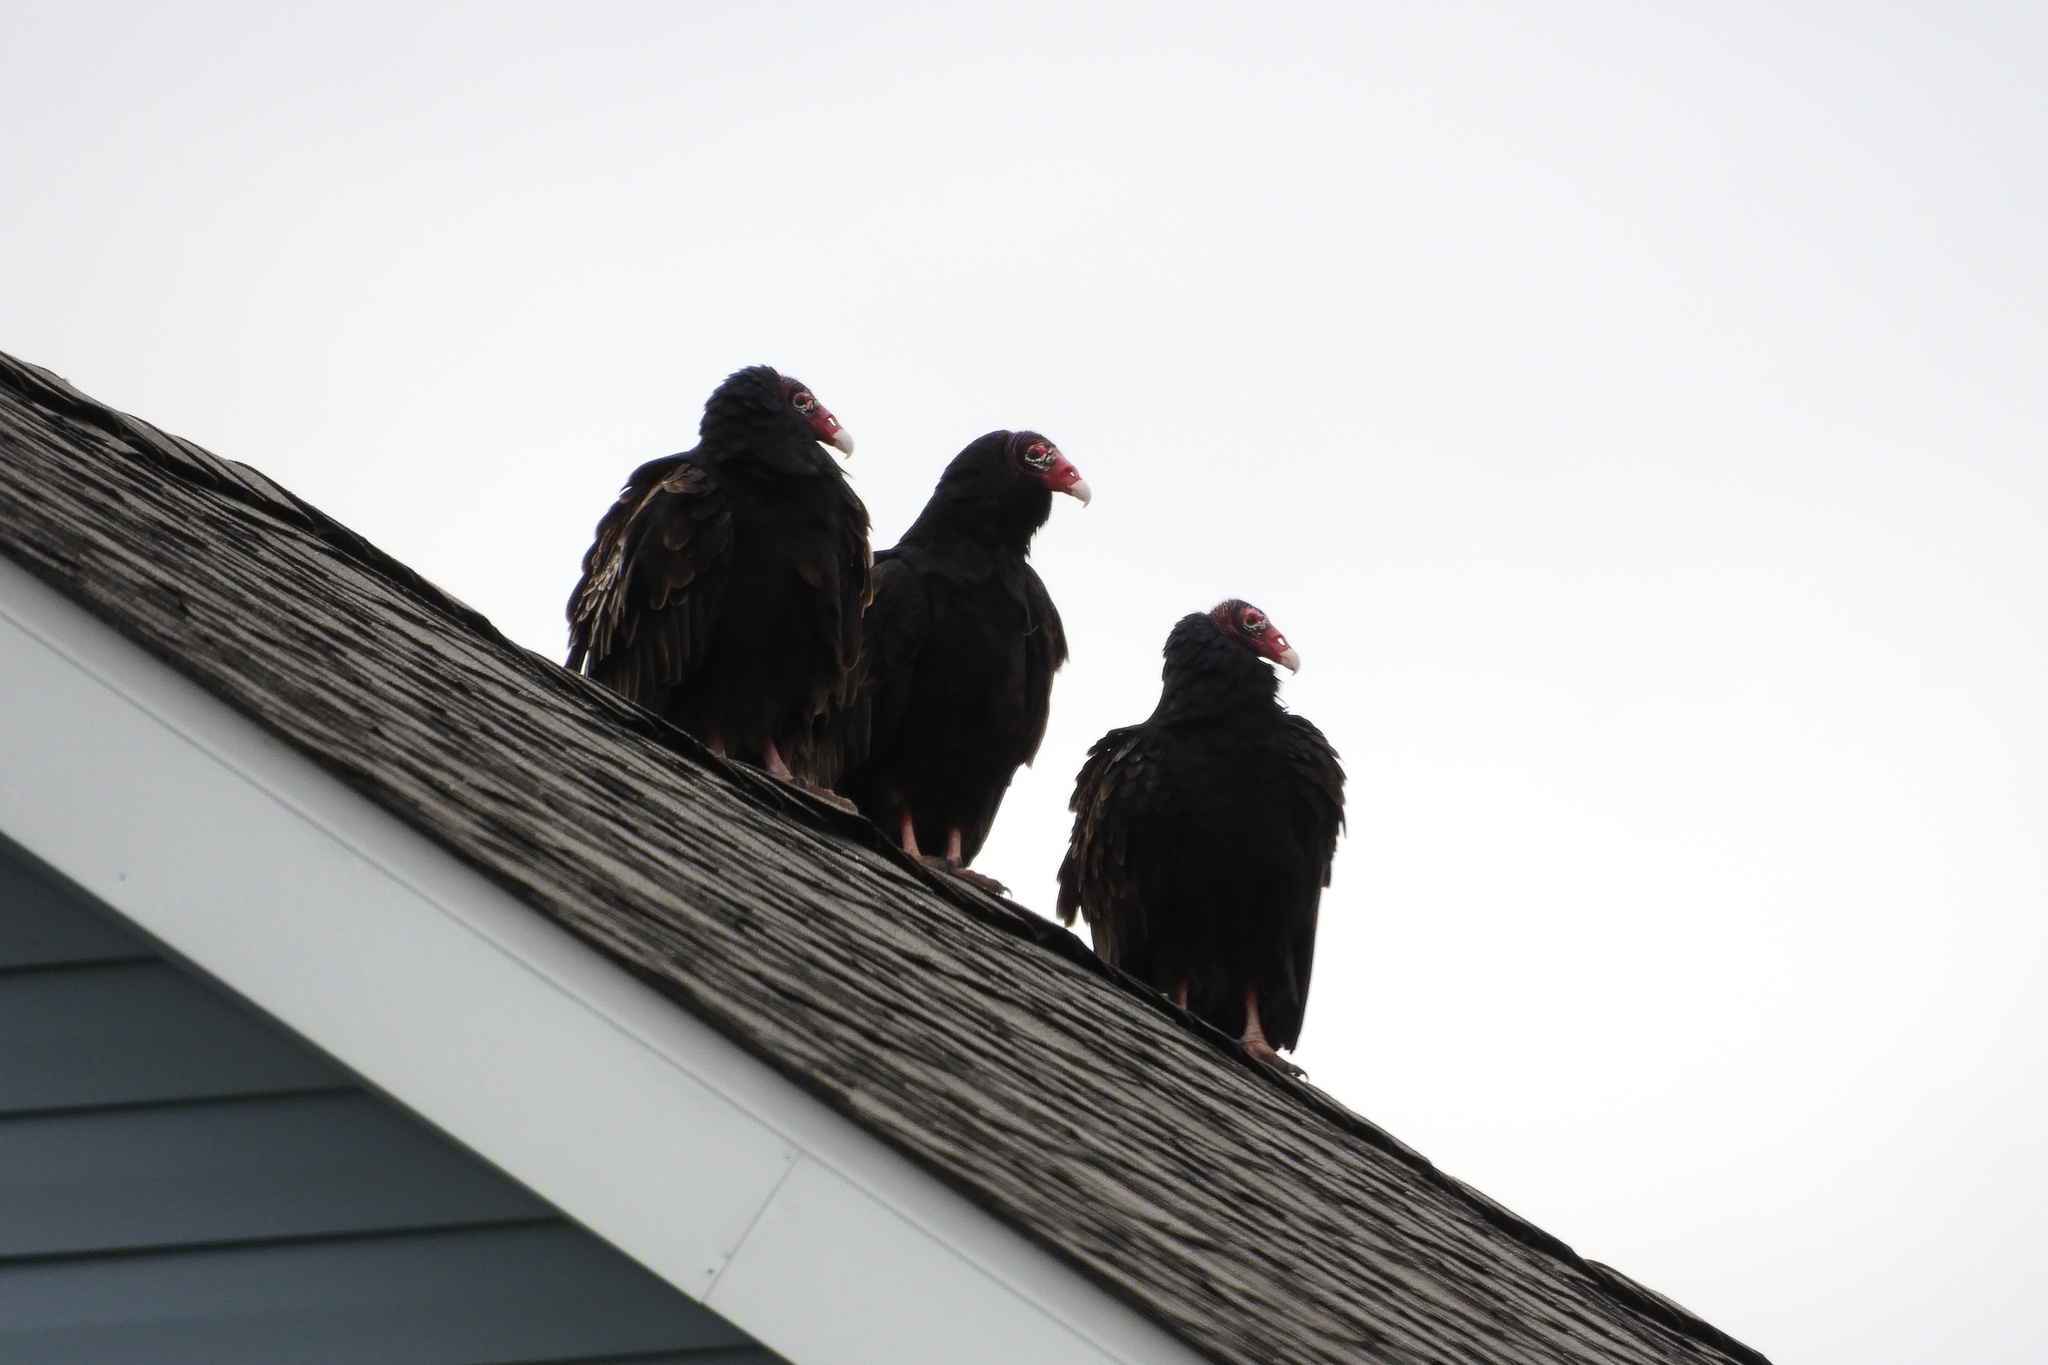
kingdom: Animalia
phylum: Chordata
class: Aves
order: Accipitriformes
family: Cathartidae
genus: Cathartes
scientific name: Cathartes aura
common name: Turkey vulture
